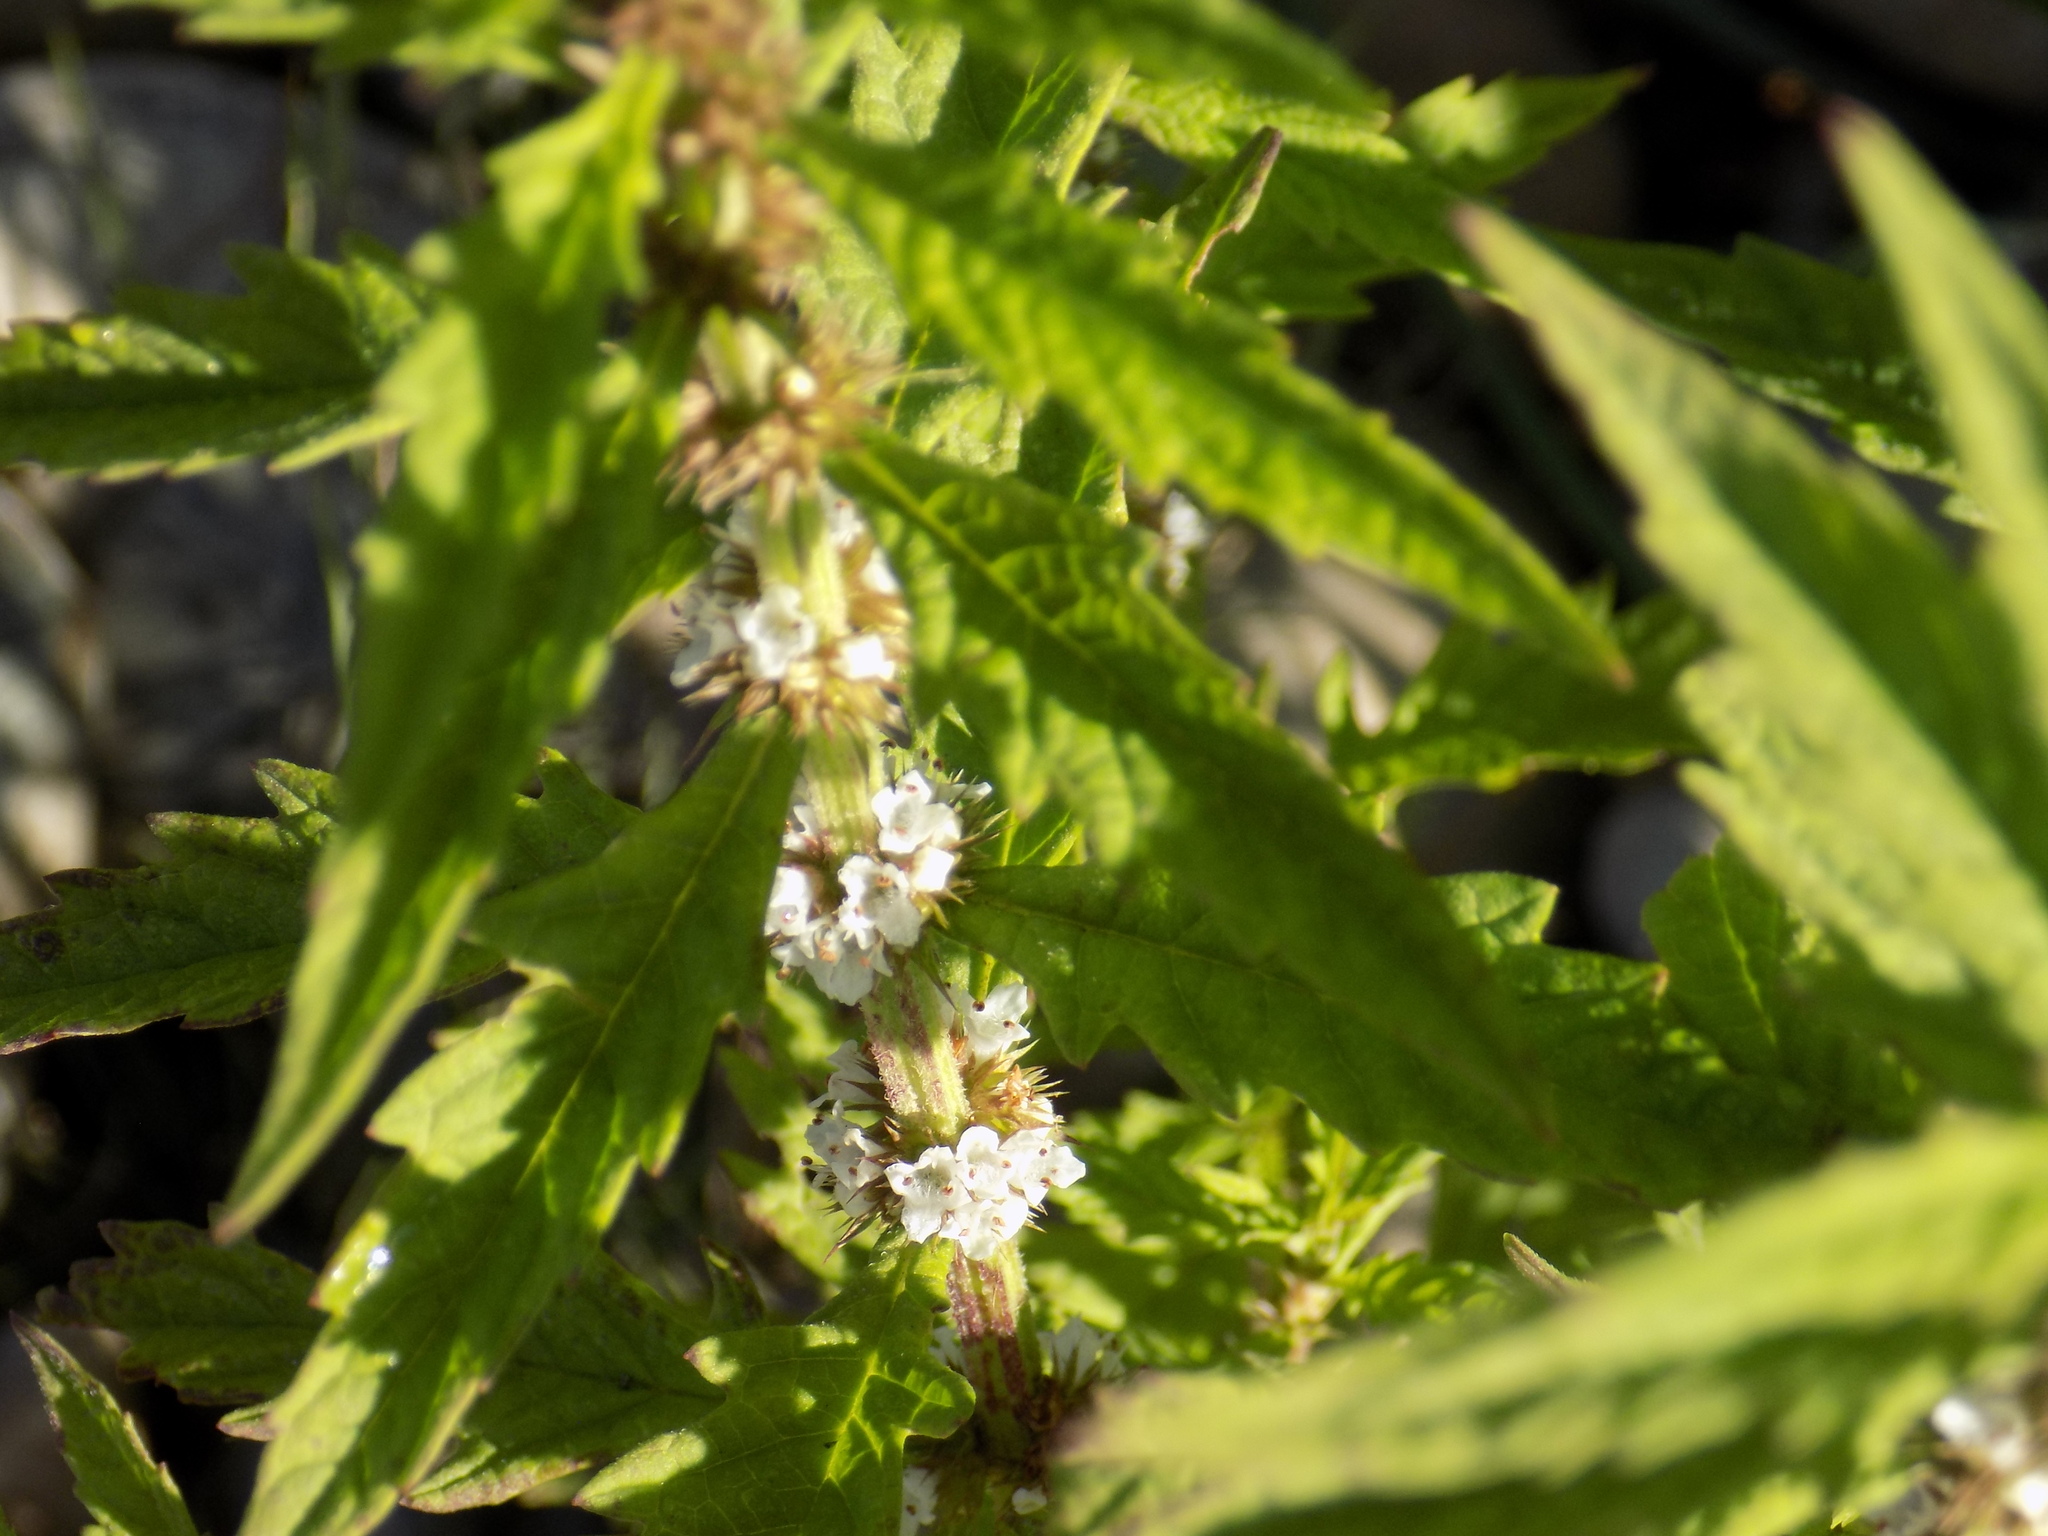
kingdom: Plantae
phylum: Tracheophyta
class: Magnoliopsida
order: Lamiales
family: Lamiaceae
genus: Lycopus
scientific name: Lycopus europaeus
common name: European bugleweed
